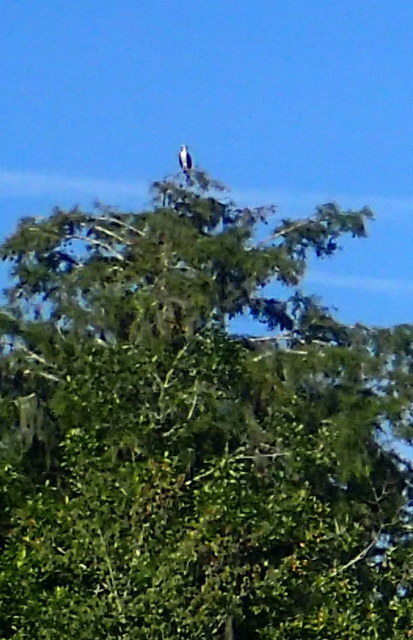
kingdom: Animalia
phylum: Chordata
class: Aves
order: Accipitriformes
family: Pandionidae
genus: Pandion
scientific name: Pandion haliaetus
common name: Osprey
